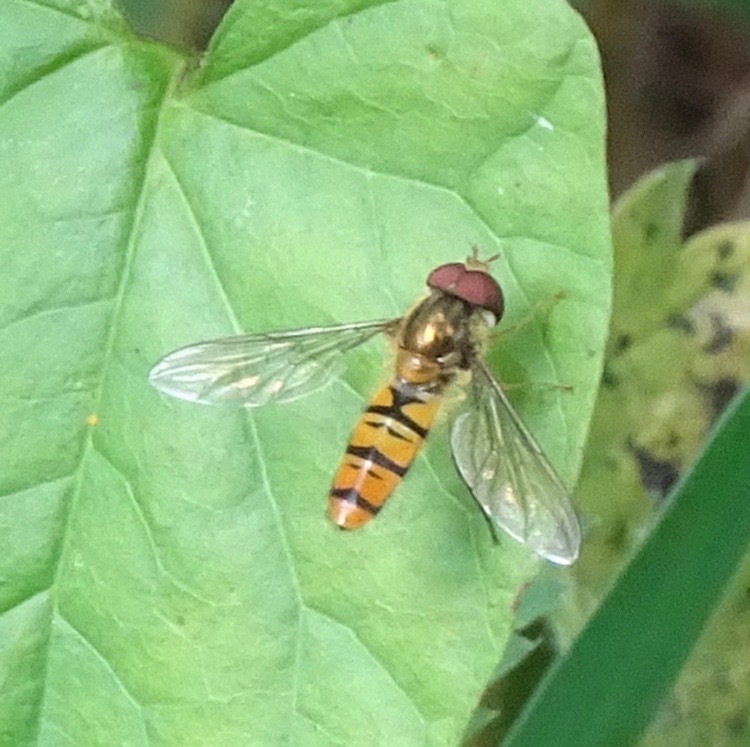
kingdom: Animalia
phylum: Arthropoda
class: Insecta
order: Diptera
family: Syrphidae
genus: Episyrphus
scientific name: Episyrphus balteatus
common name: Marmalade hoverfly
